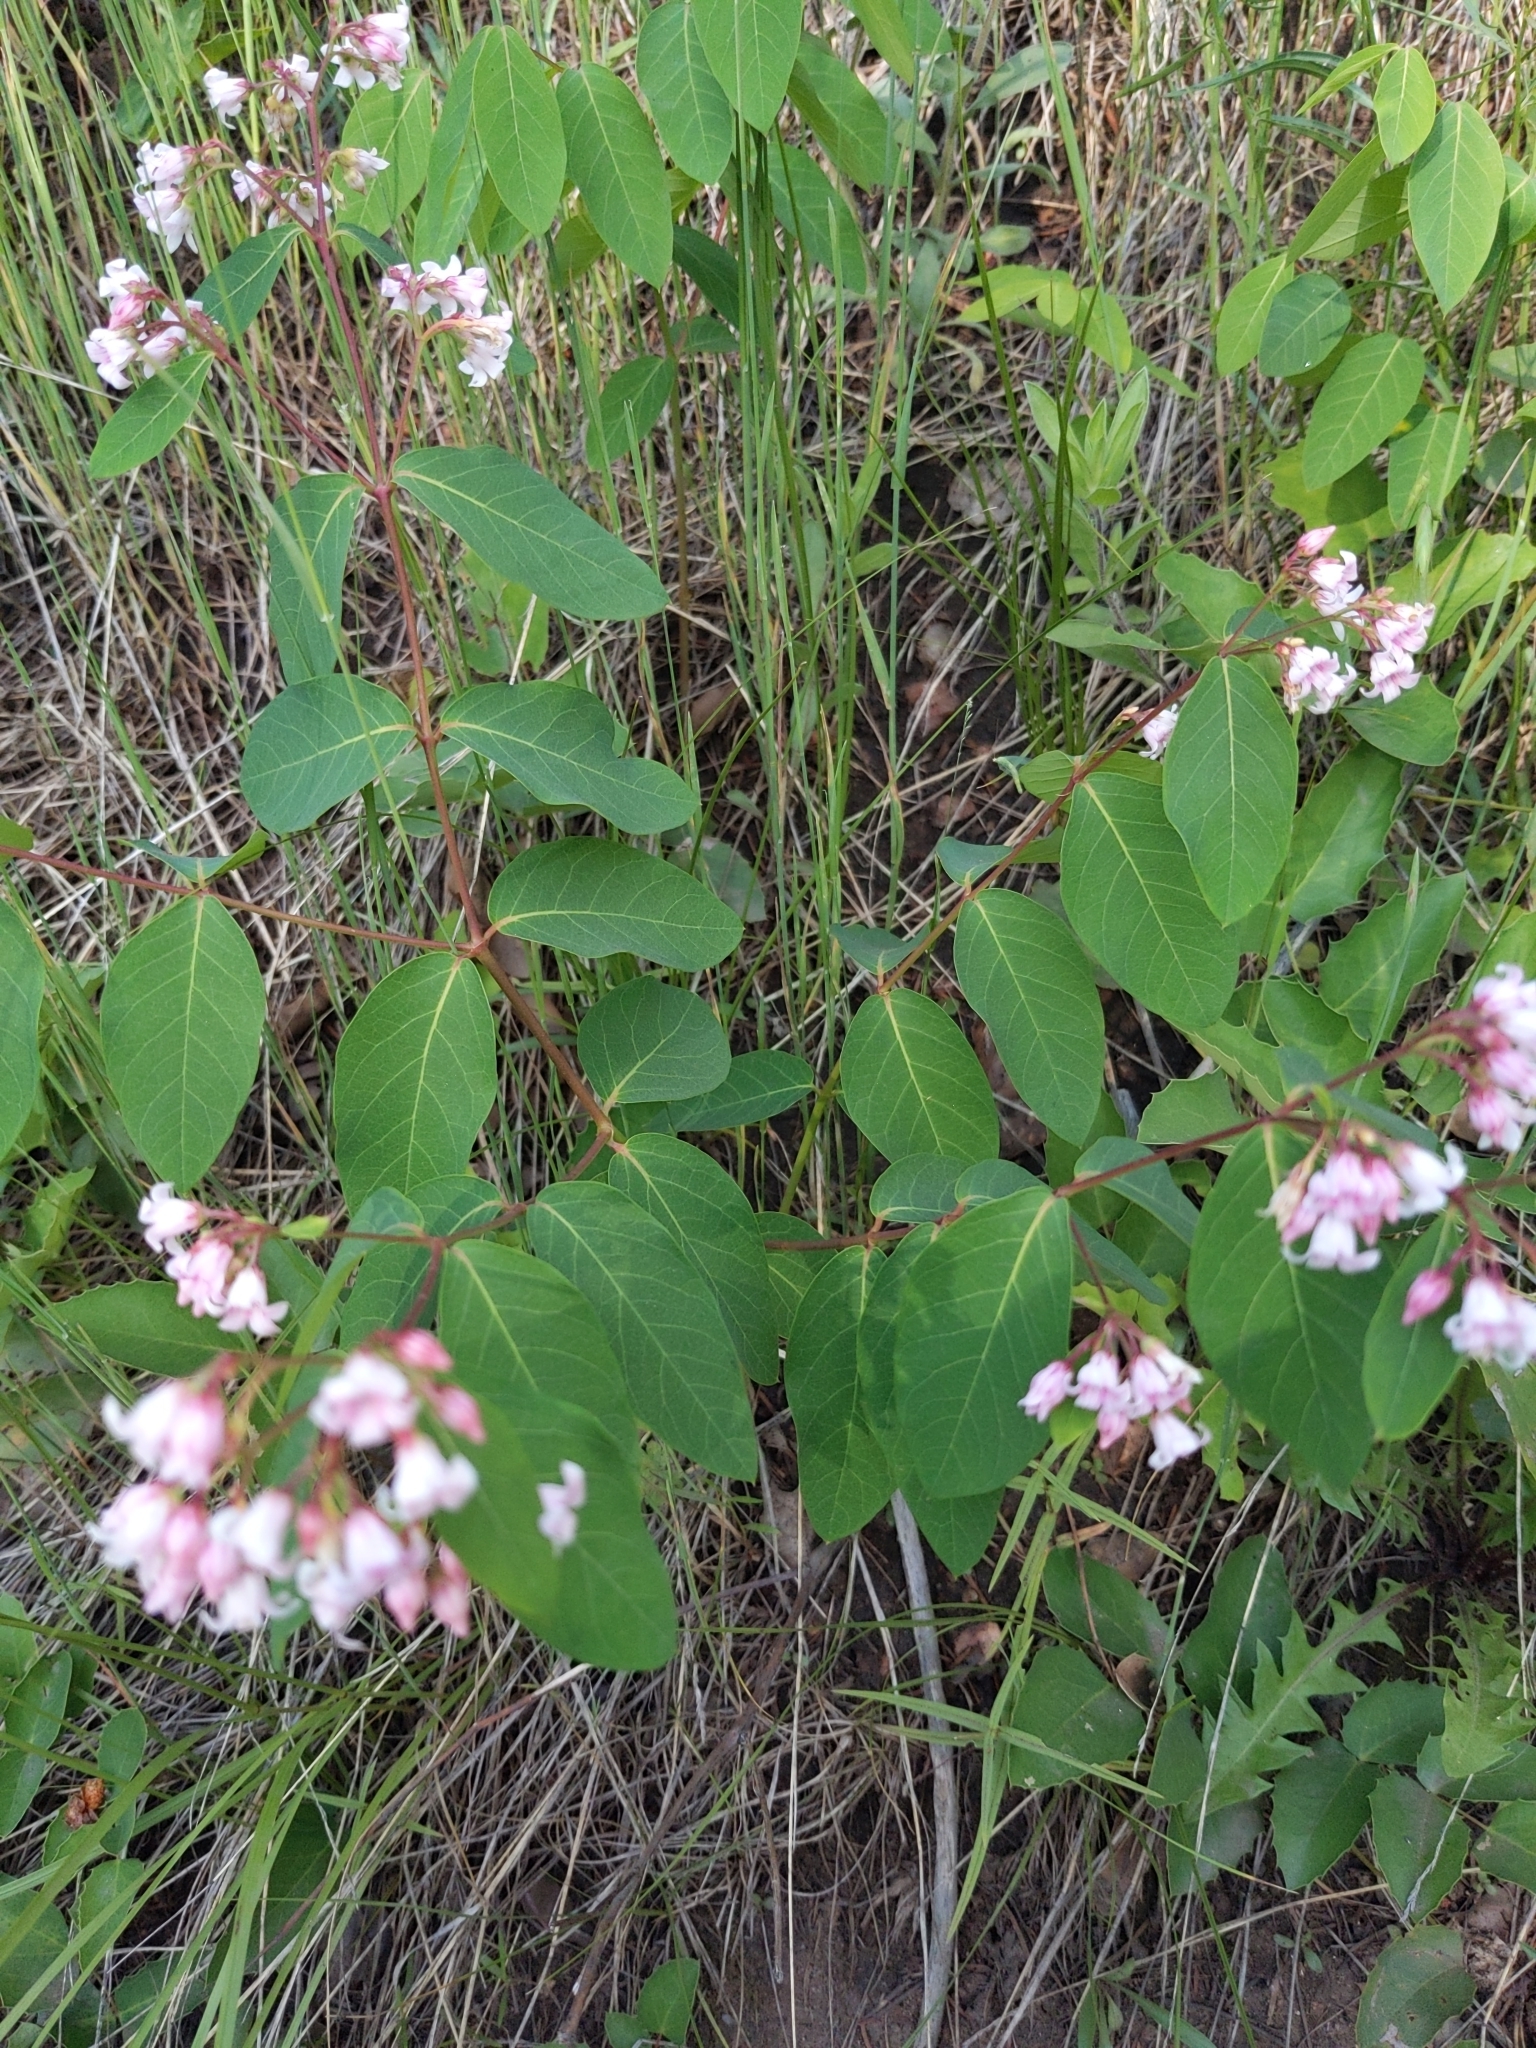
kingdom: Plantae
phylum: Tracheophyta
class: Magnoliopsida
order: Gentianales
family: Apocynaceae
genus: Apocynum
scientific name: Apocynum androsaemifolium
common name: Spreading dogbane
